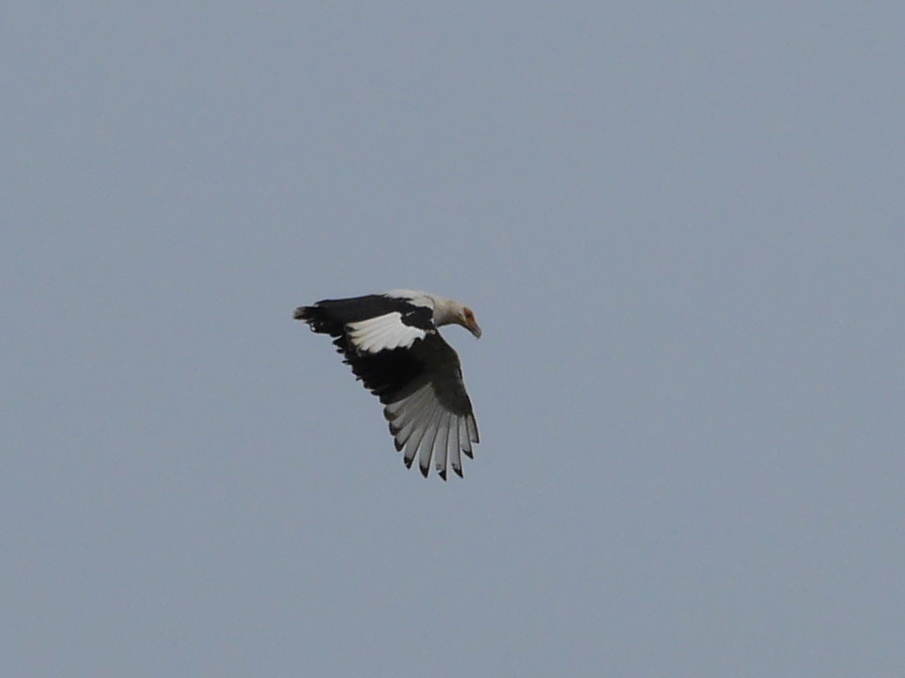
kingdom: Animalia
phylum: Chordata
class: Aves
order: Accipitriformes
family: Accipitridae
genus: Gypohierax
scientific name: Gypohierax angolensis
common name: Palm-nut vulture
